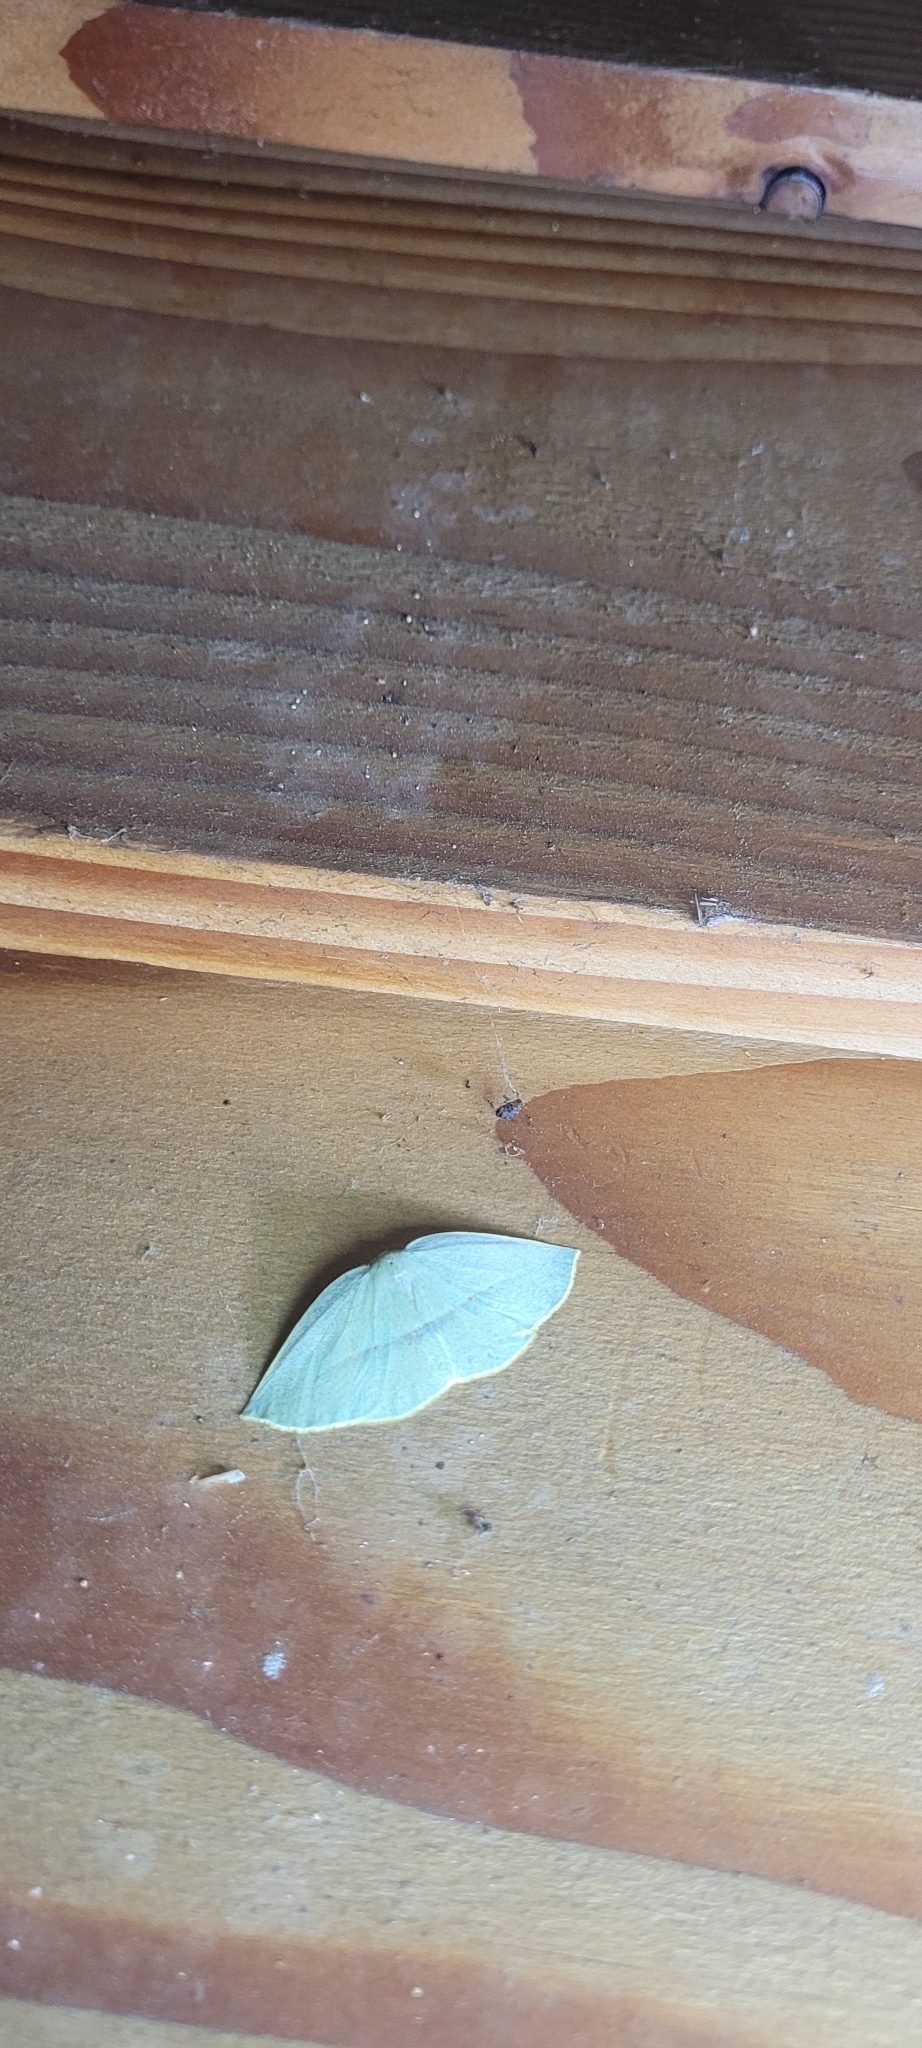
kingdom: Animalia
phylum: Arthropoda
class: Insecta
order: Lepidoptera
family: Geometridae
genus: Eusarca
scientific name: Eusarca valdiviana
